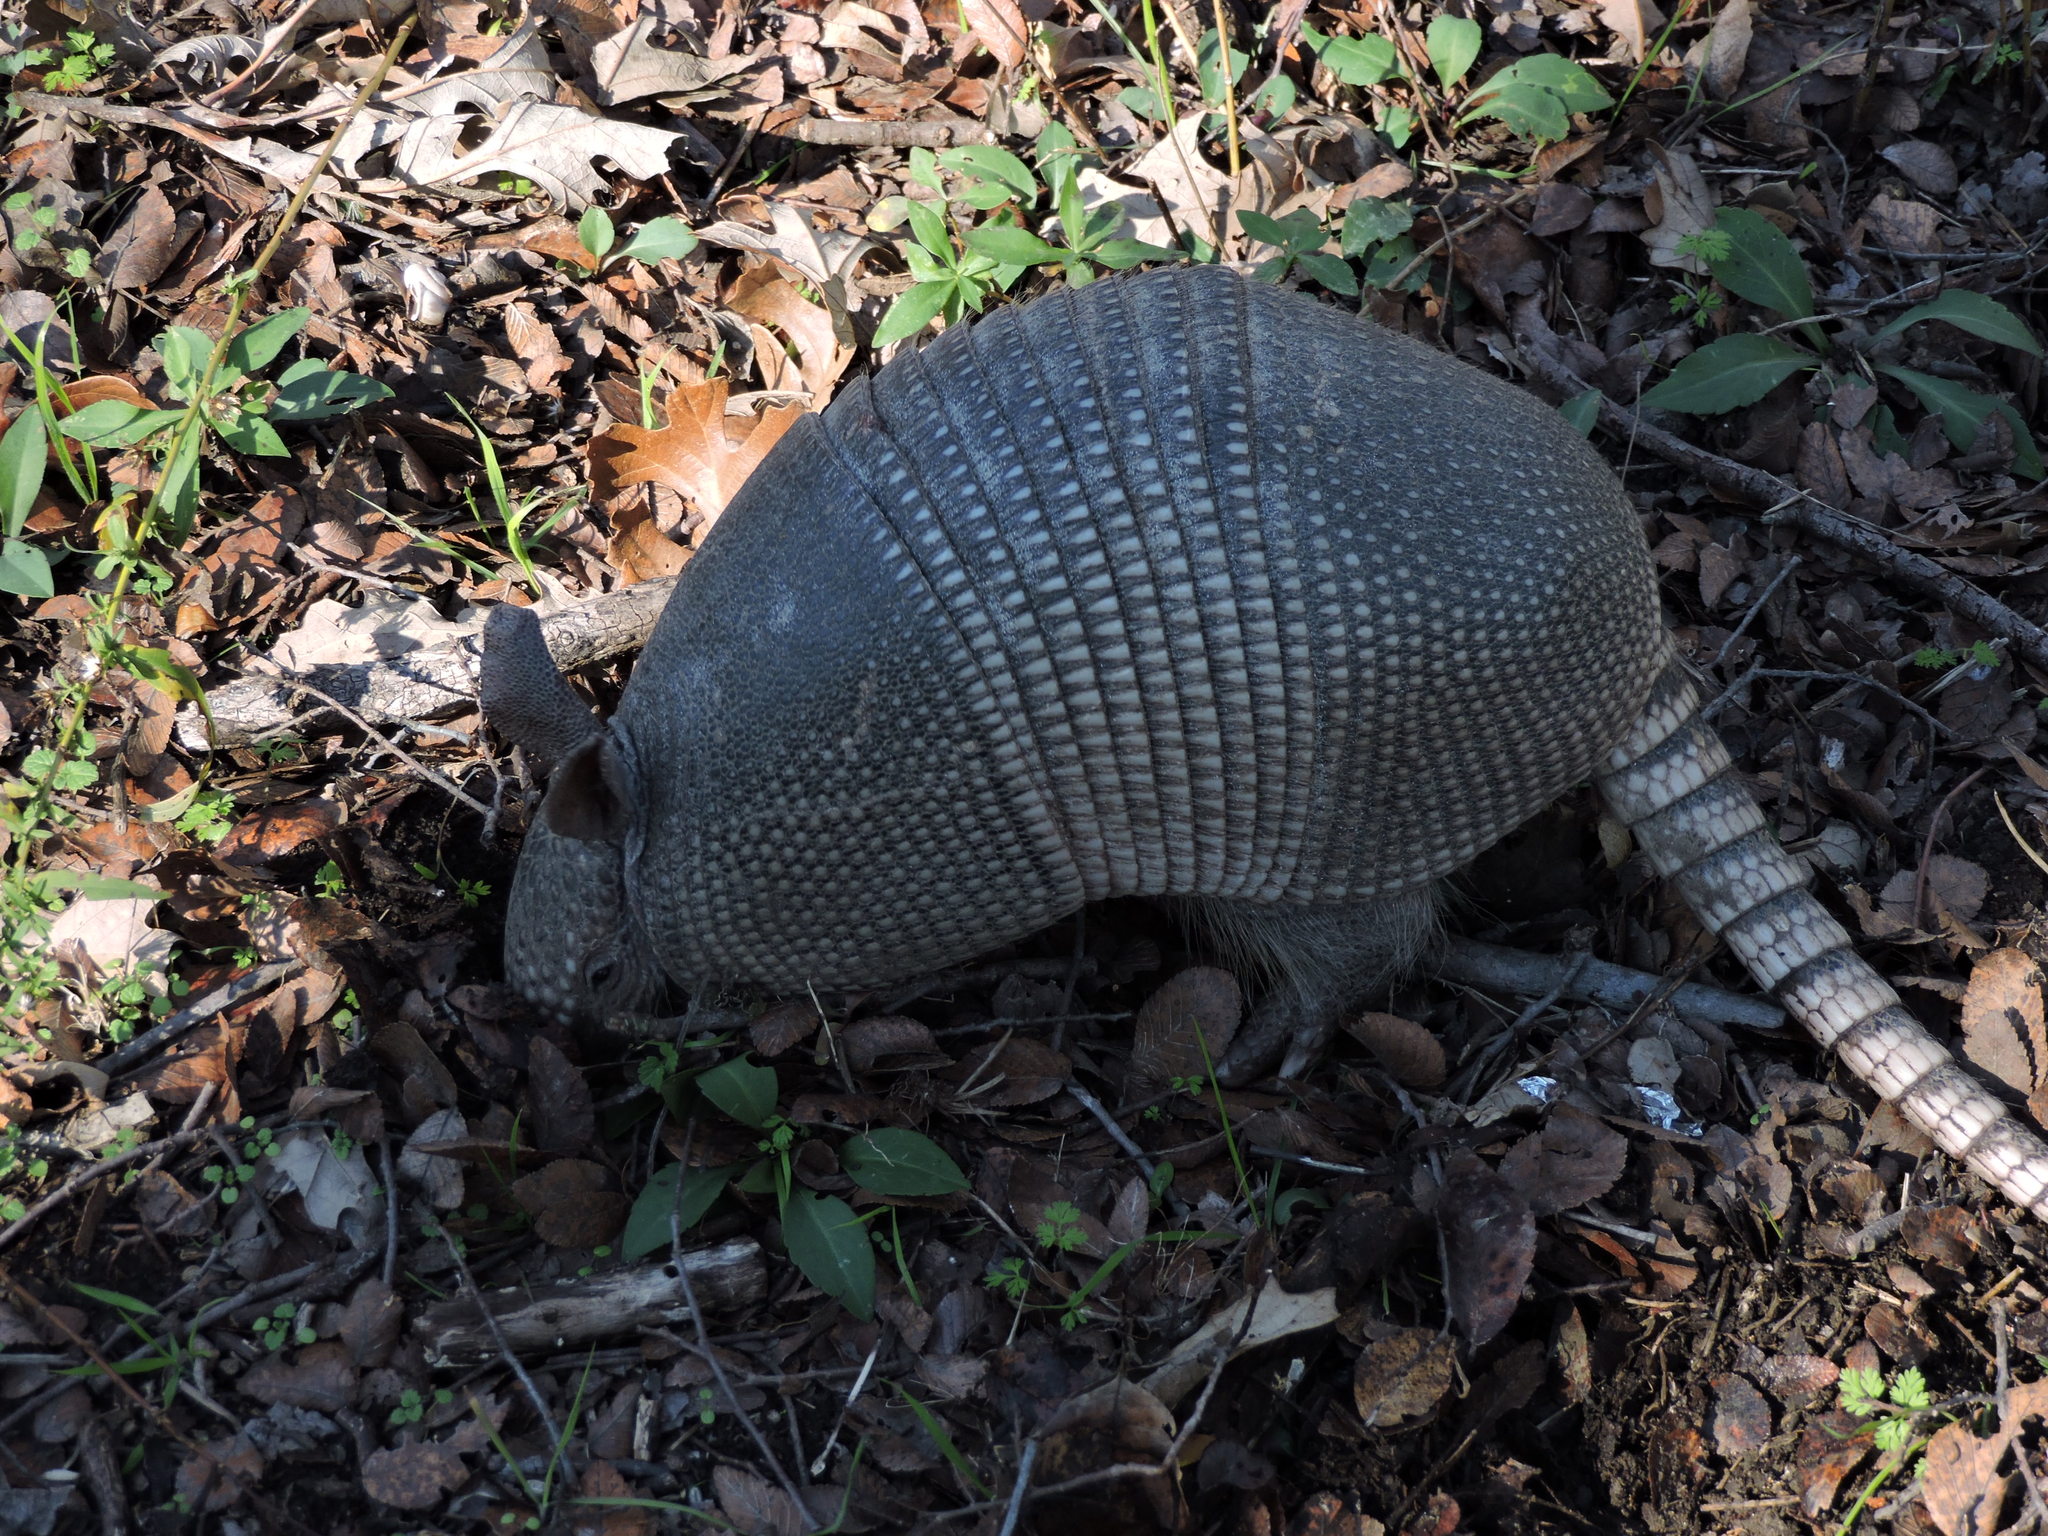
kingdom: Animalia
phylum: Chordata
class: Mammalia
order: Cingulata
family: Dasypodidae
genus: Dasypus
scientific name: Dasypus novemcinctus
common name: Nine-banded armadillo
